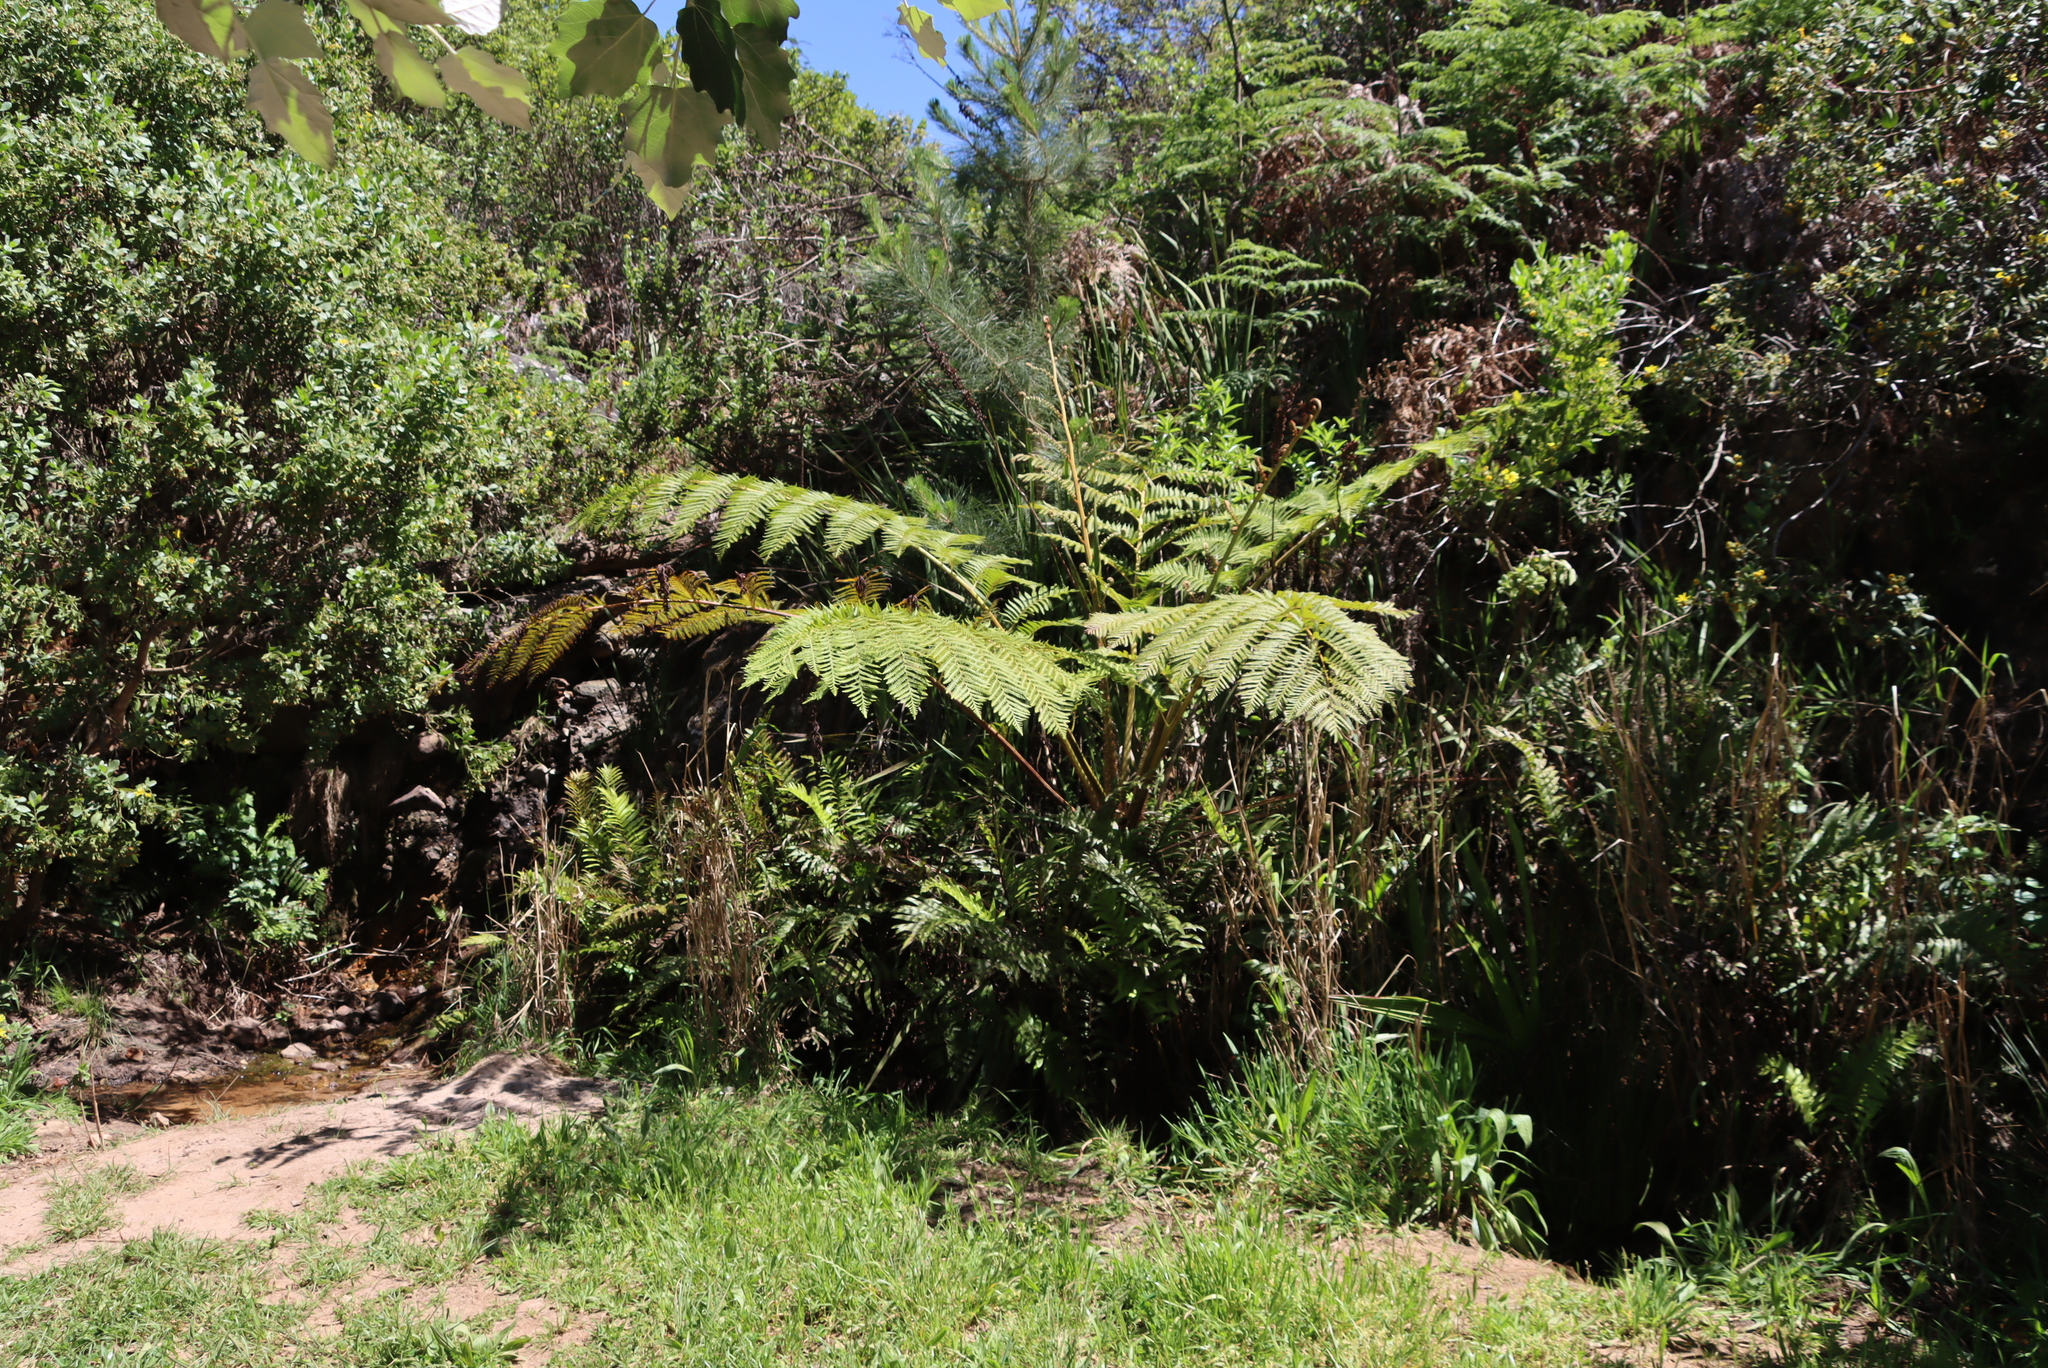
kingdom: Plantae
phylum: Tracheophyta
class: Polypodiopsida
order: Cyatheales
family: Cyatheaceae
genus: Sphaeropteris
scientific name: Sphaeropteris cooperi
